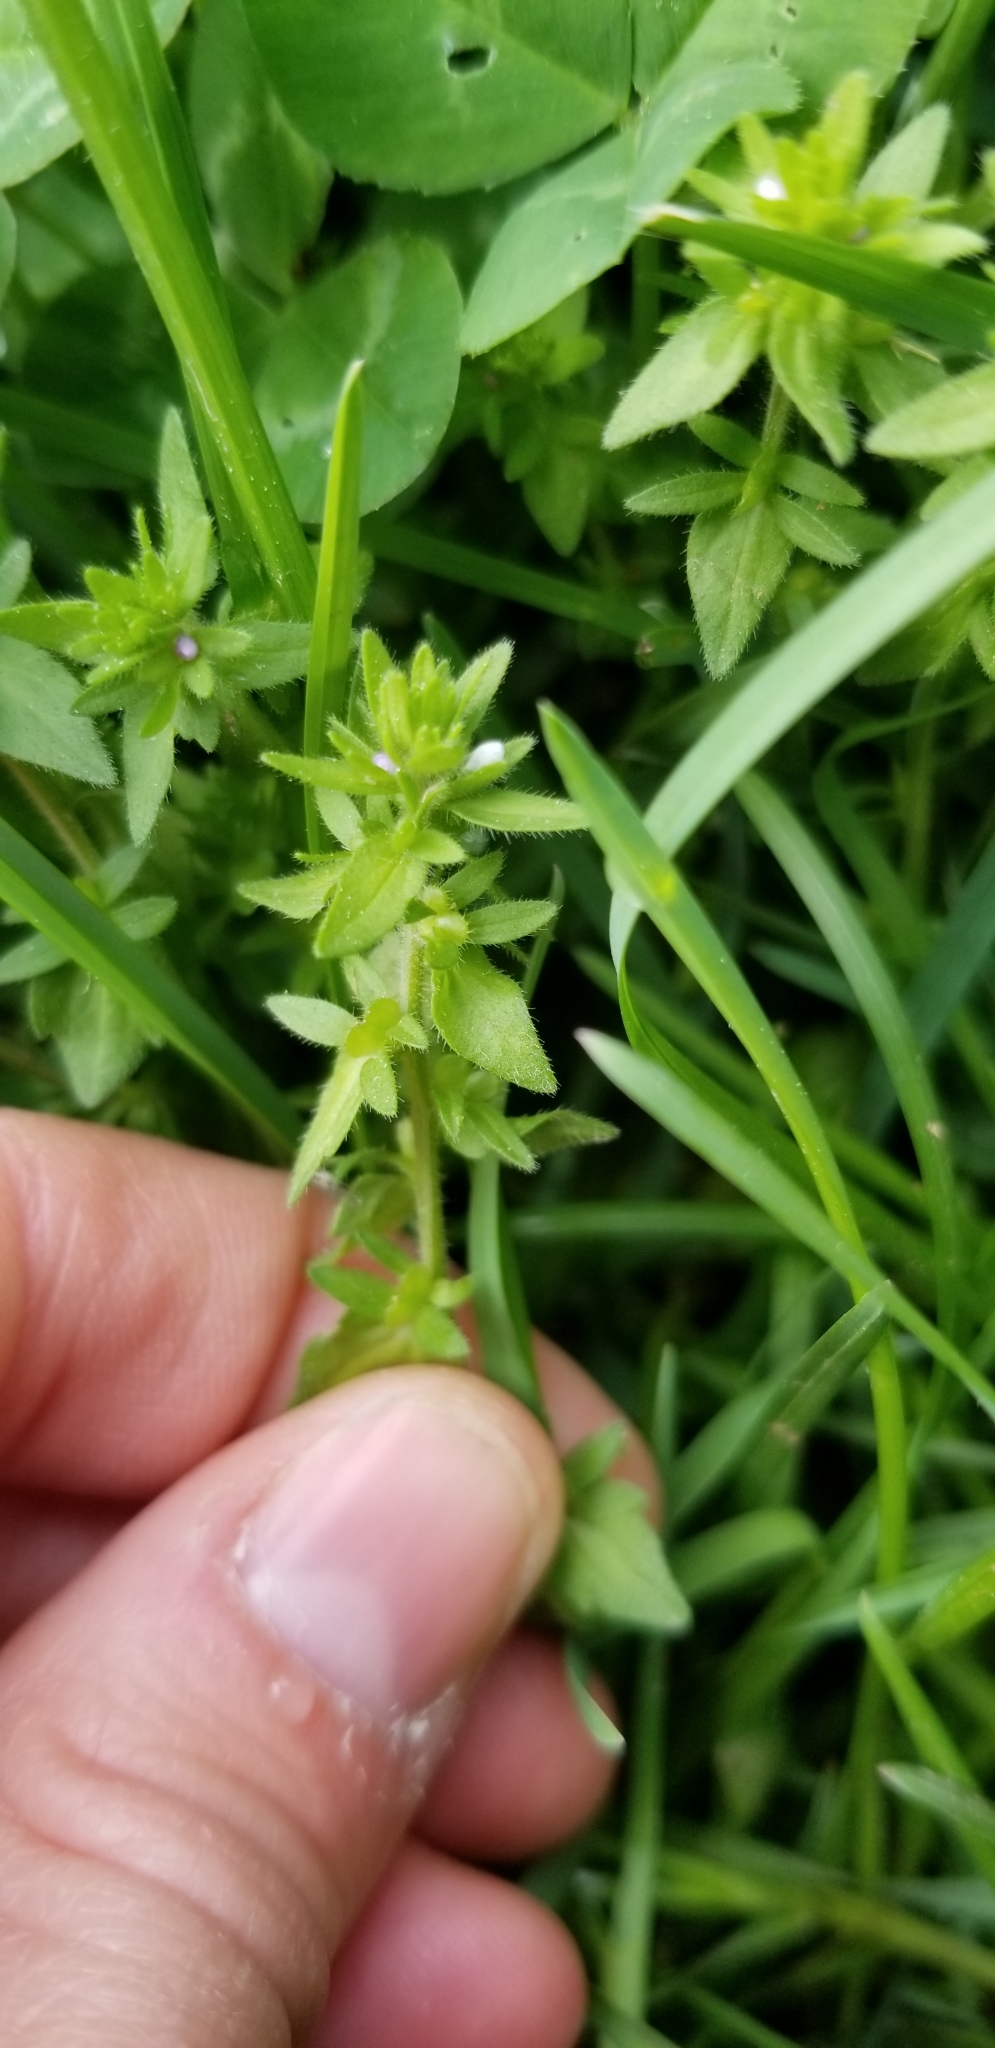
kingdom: Plantae
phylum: Tracheophyta
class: Magnoliopsida
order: Lamiales
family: Plantaginaceae
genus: Veronica
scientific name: Veronica arvensis
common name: Corn speedwell
